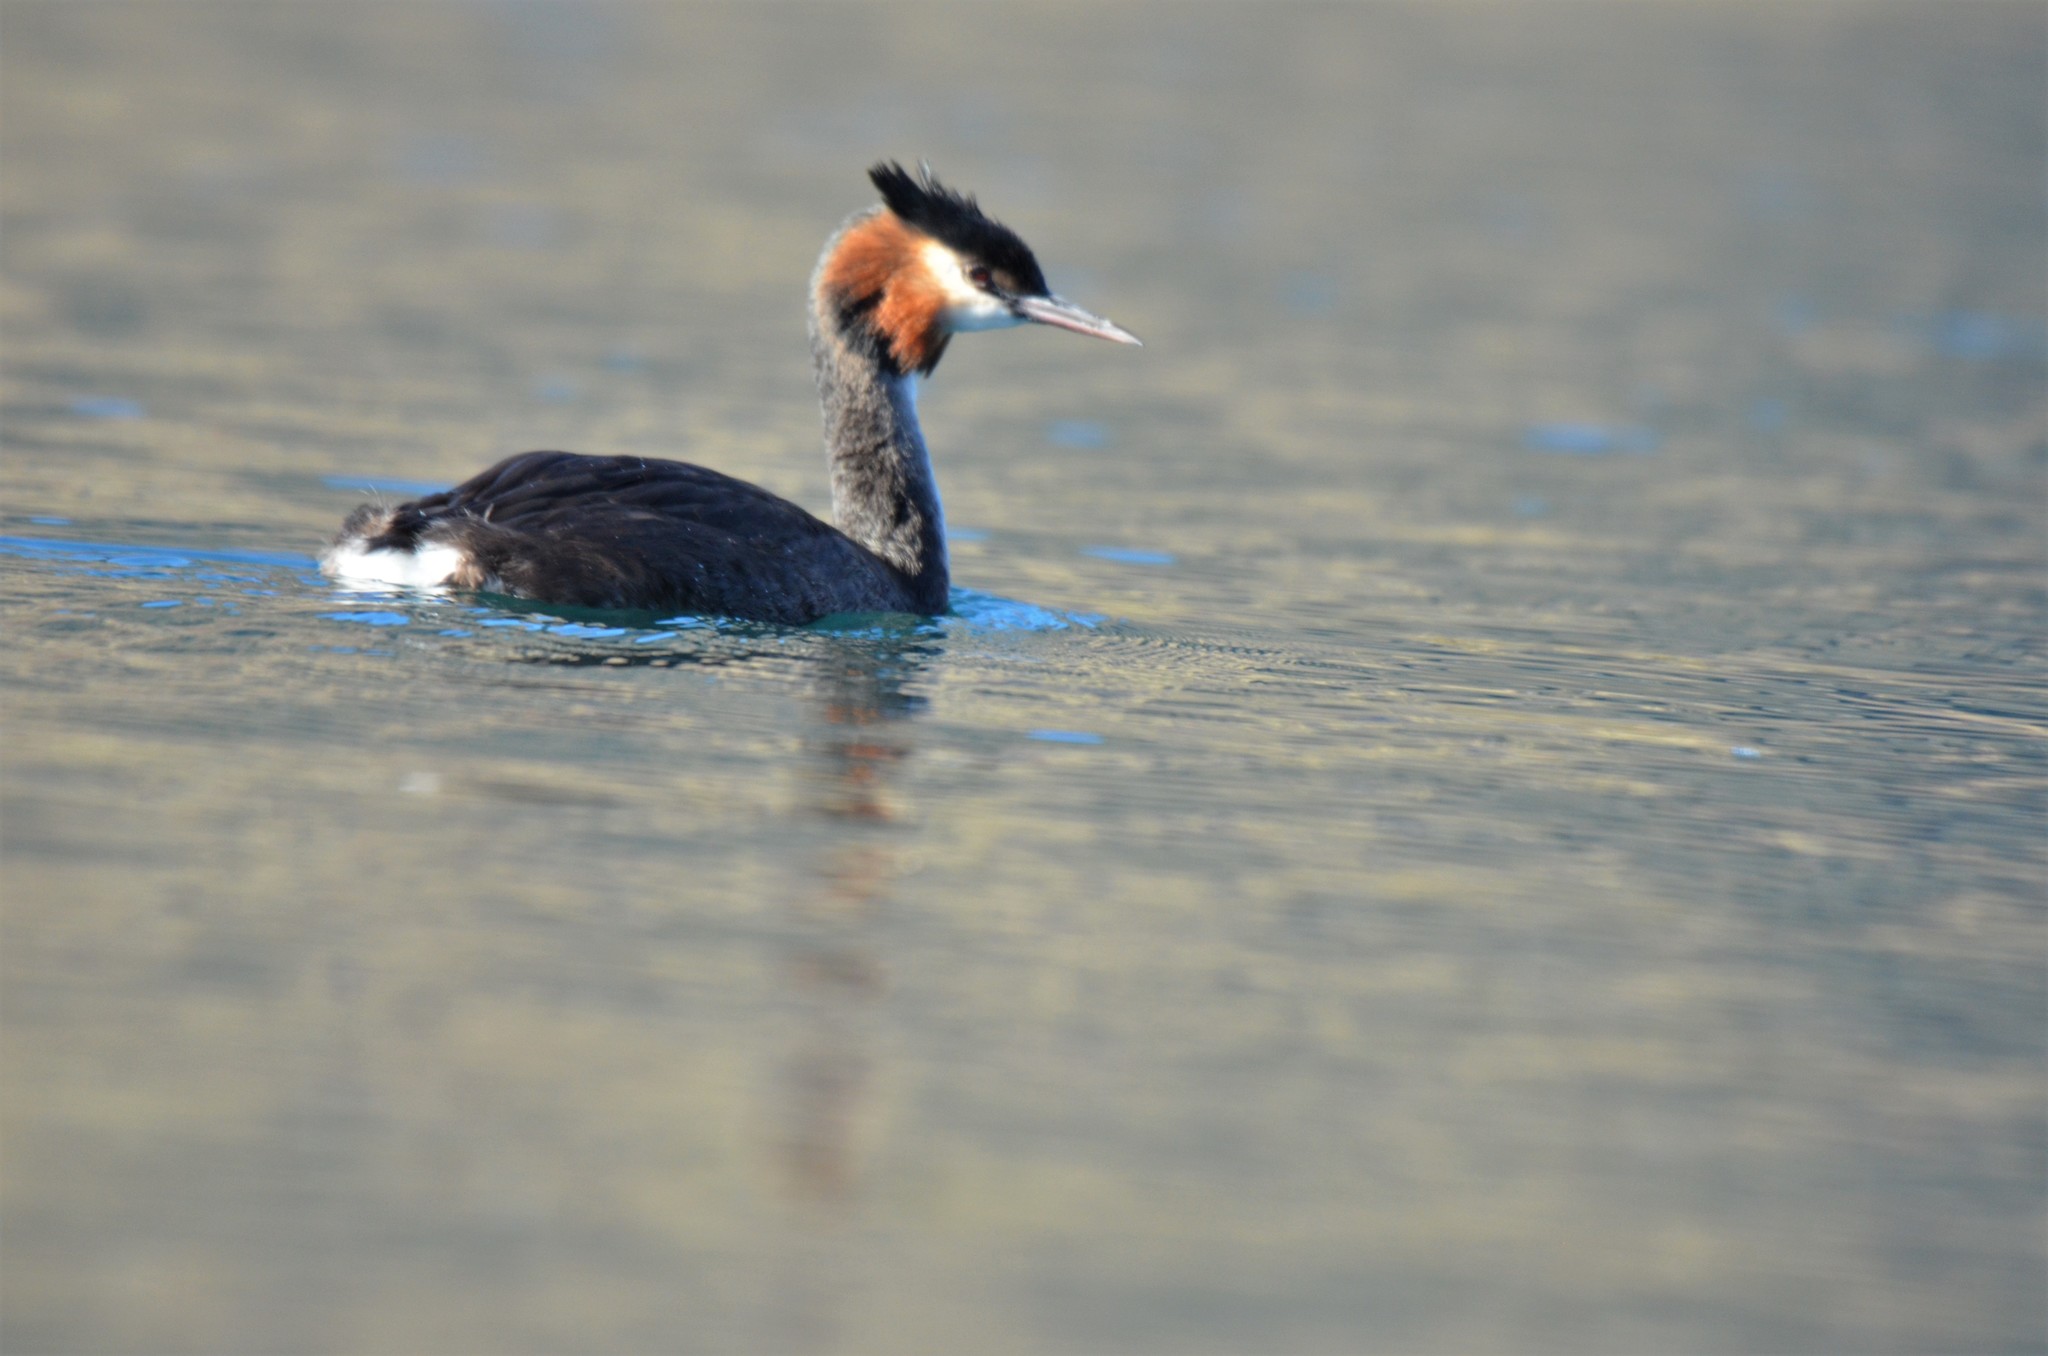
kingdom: Animalia
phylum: Chordata
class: Aves
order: Podicipediformes
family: Podicipedidae
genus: Podiceps
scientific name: Podiceps cristatus
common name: Great crested grebe
